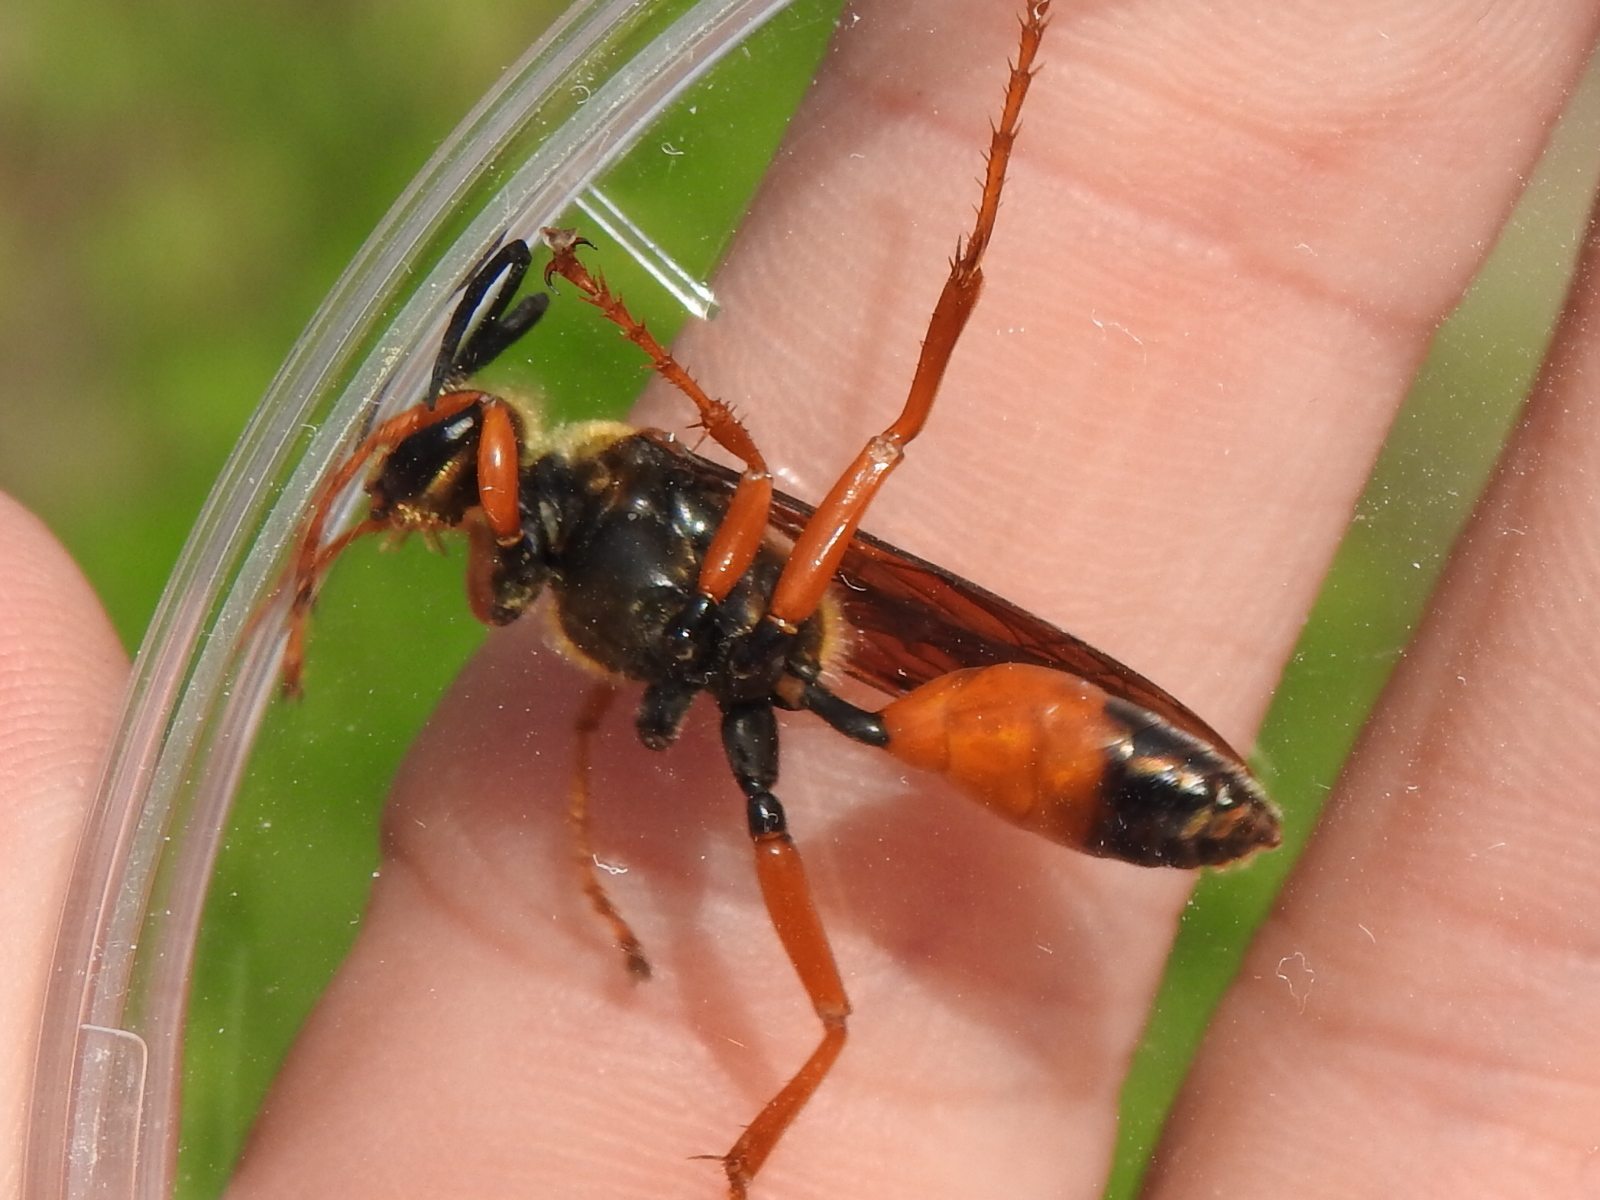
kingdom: Animalia
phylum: Arthropoda
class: Insecta
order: Hymenoptera
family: Sphecidae
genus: Sphex
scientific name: Sphex ichneumoneus
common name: Great golden digger wasp
